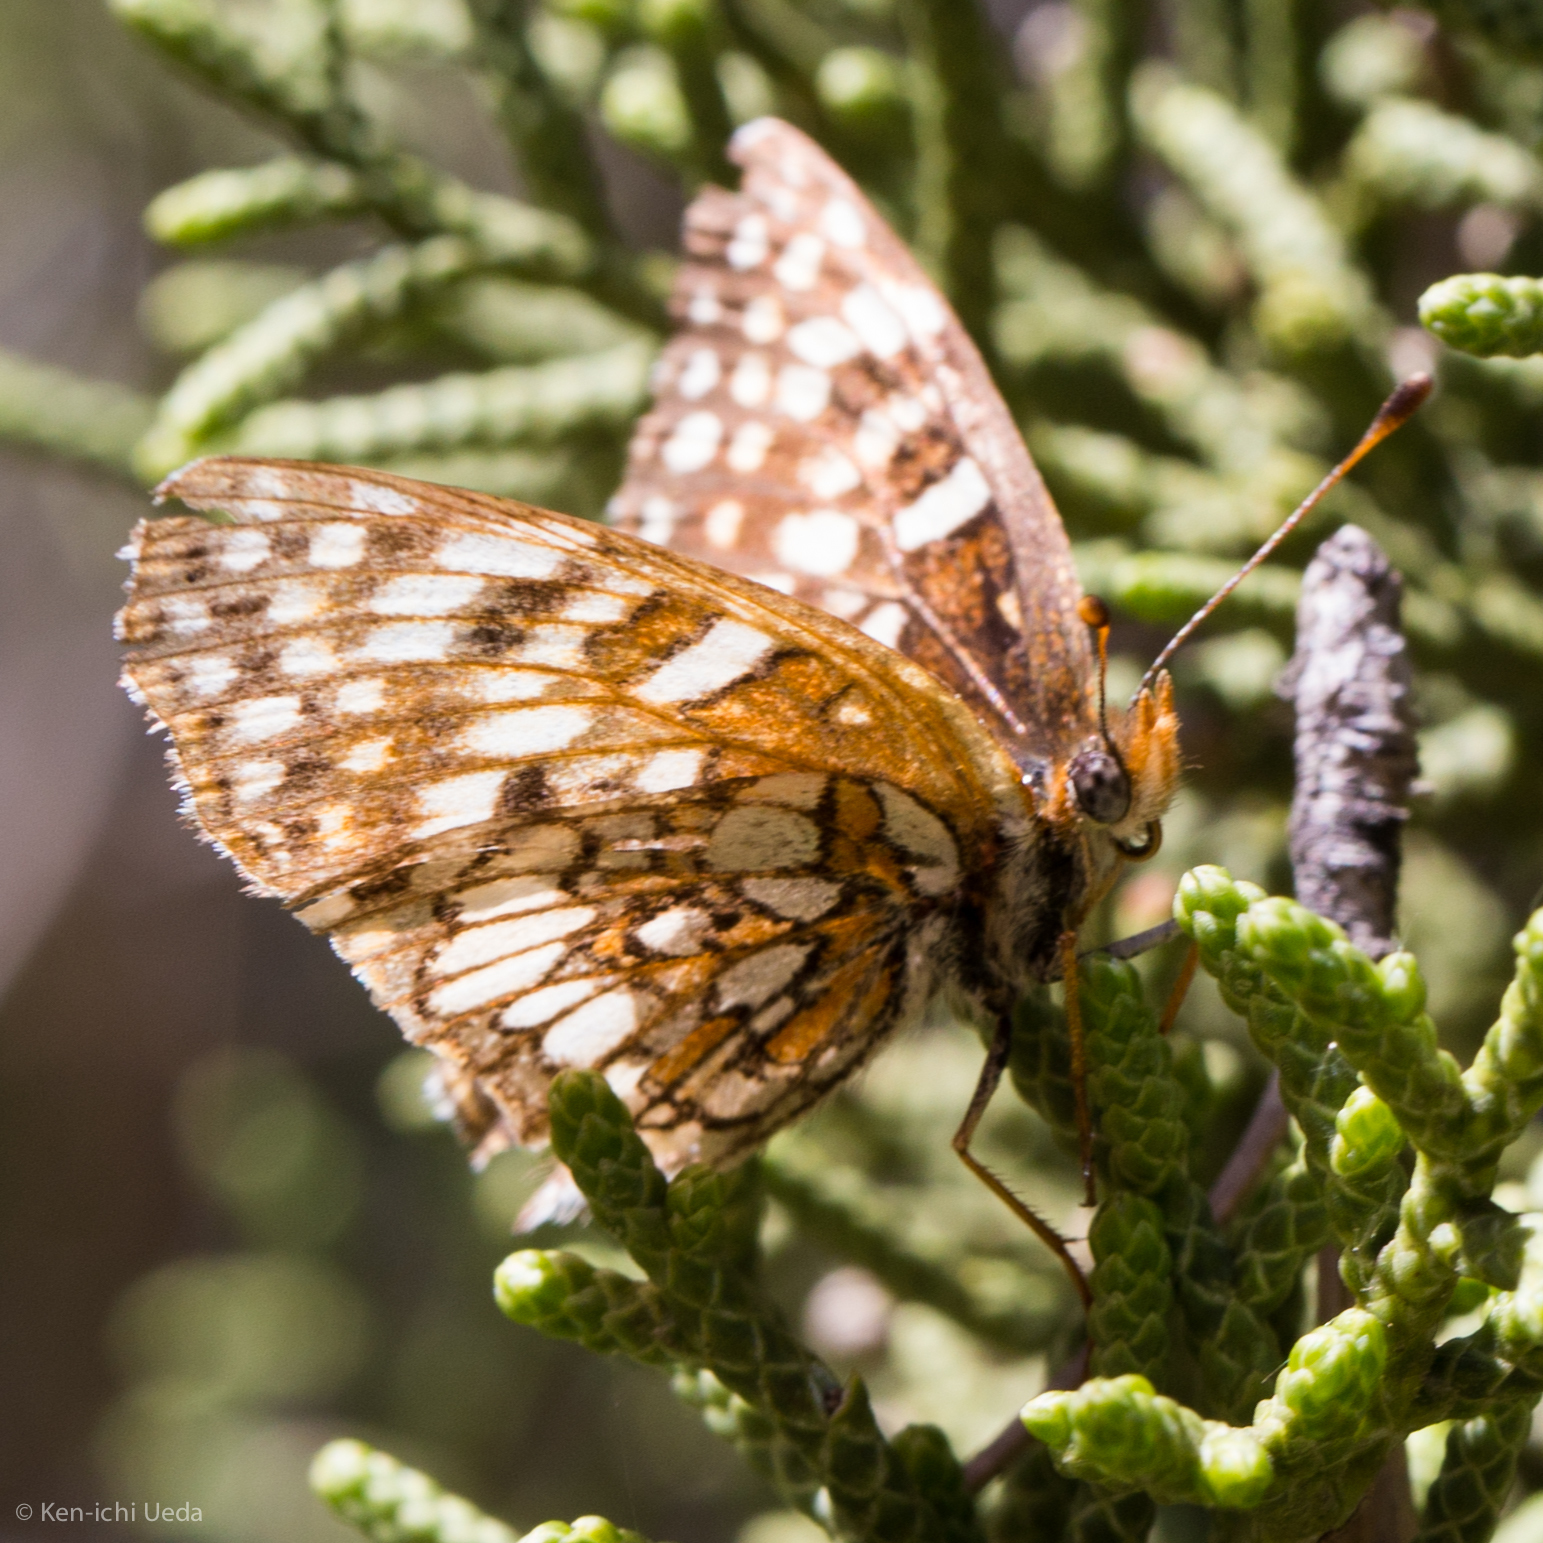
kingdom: Animalia
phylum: Arthropoda
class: Insecta
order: Lepidoptera
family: Nymphalidae
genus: Chlosyne
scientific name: Chlosyne gabbii
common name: Gabb's checkerspot
